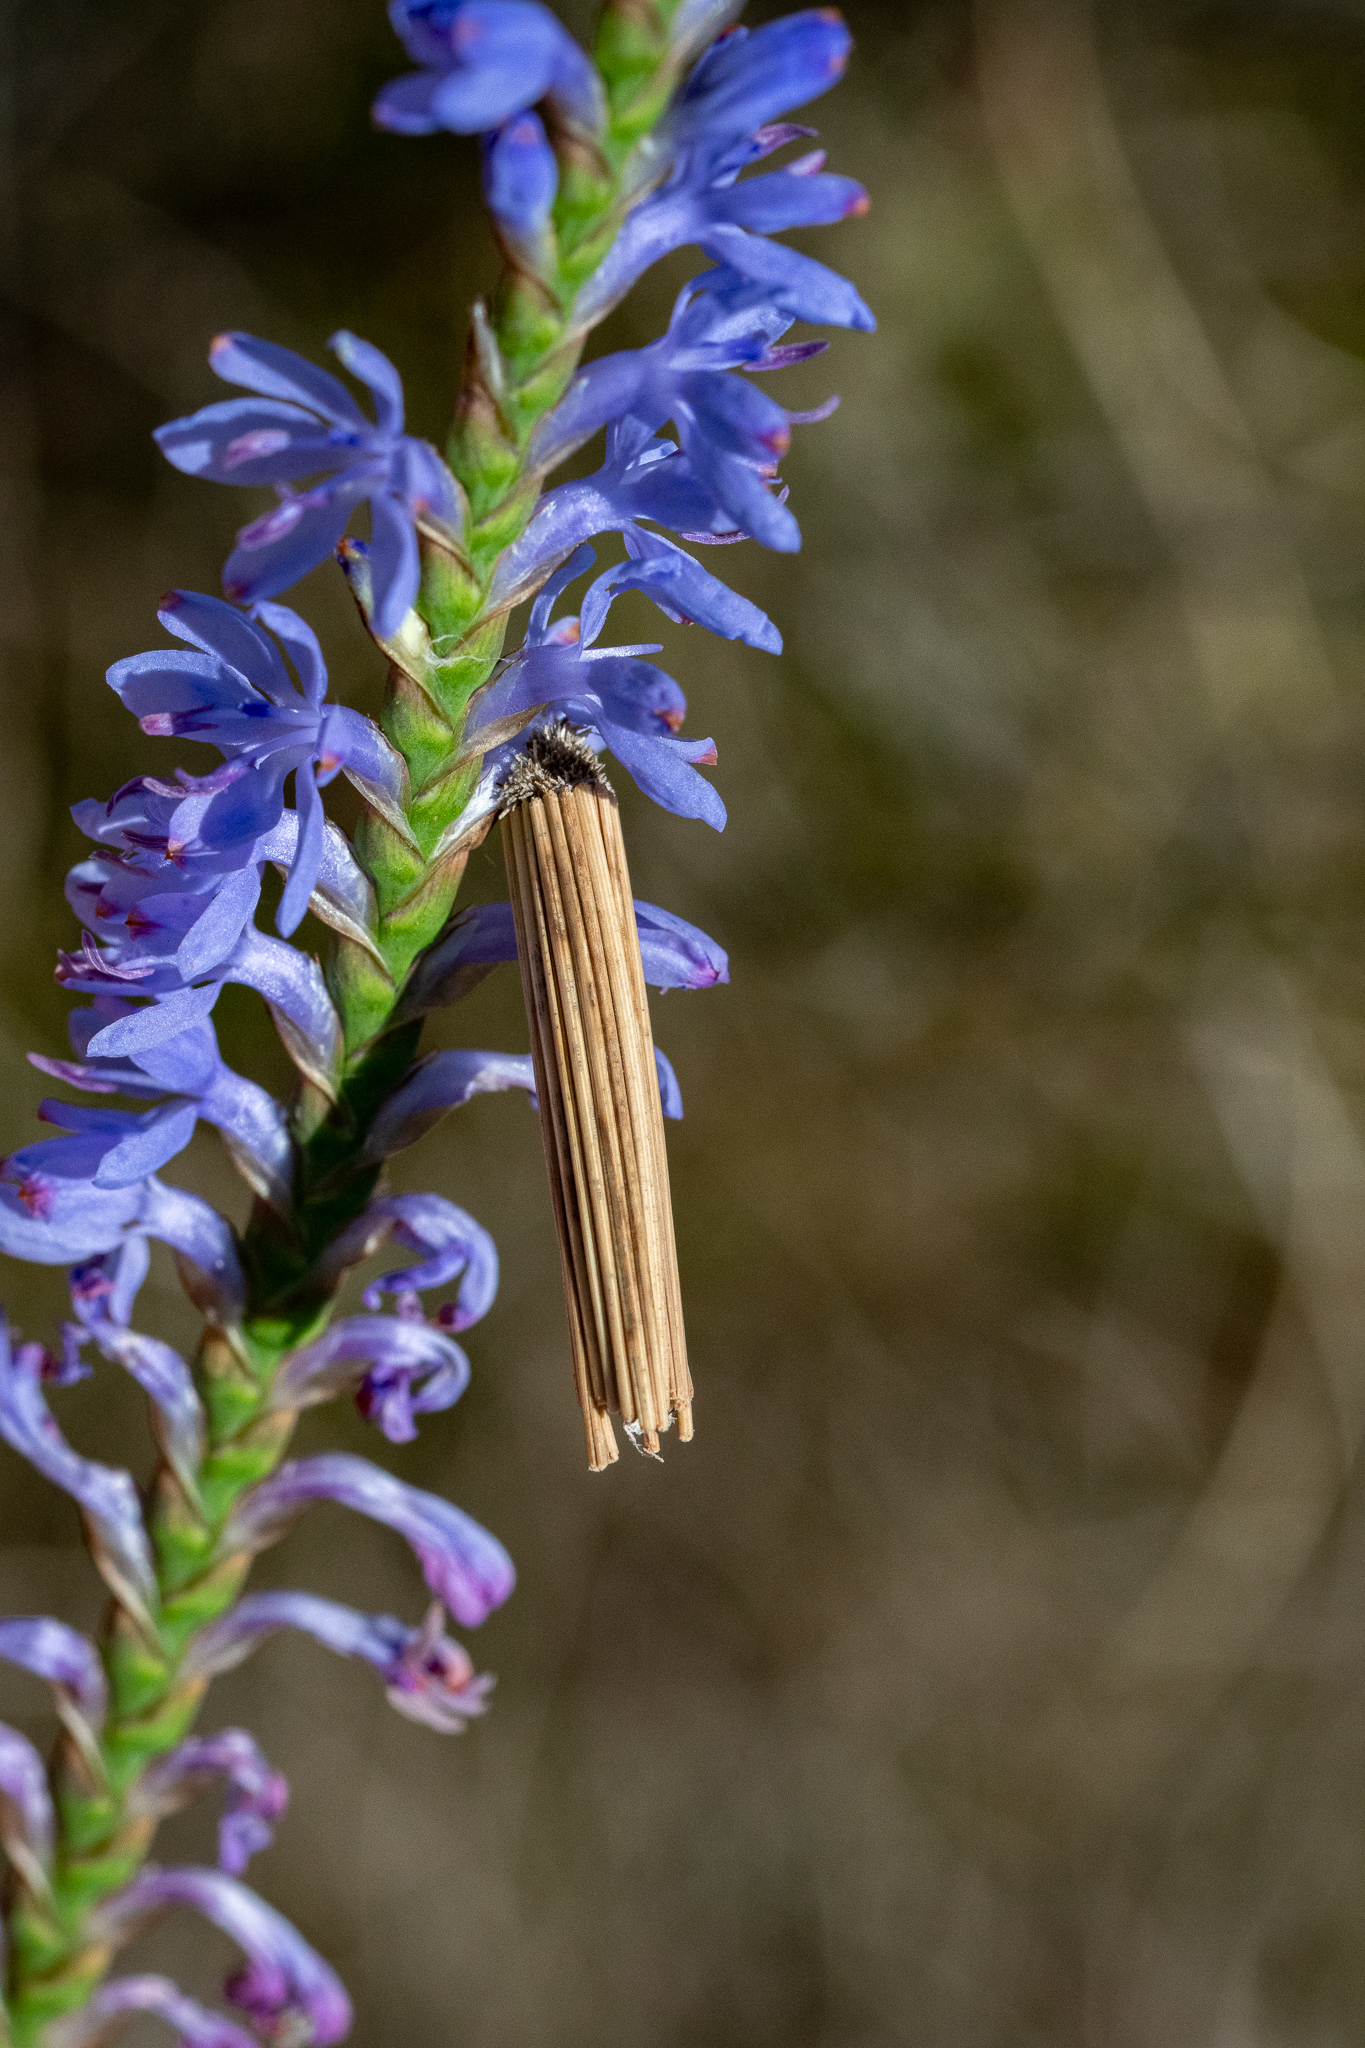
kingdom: Plantae
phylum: Tracheophyta
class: Liliopsida
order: Asparagales
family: Iridaceae
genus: Micranthus
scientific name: Micranthus plantagineus
